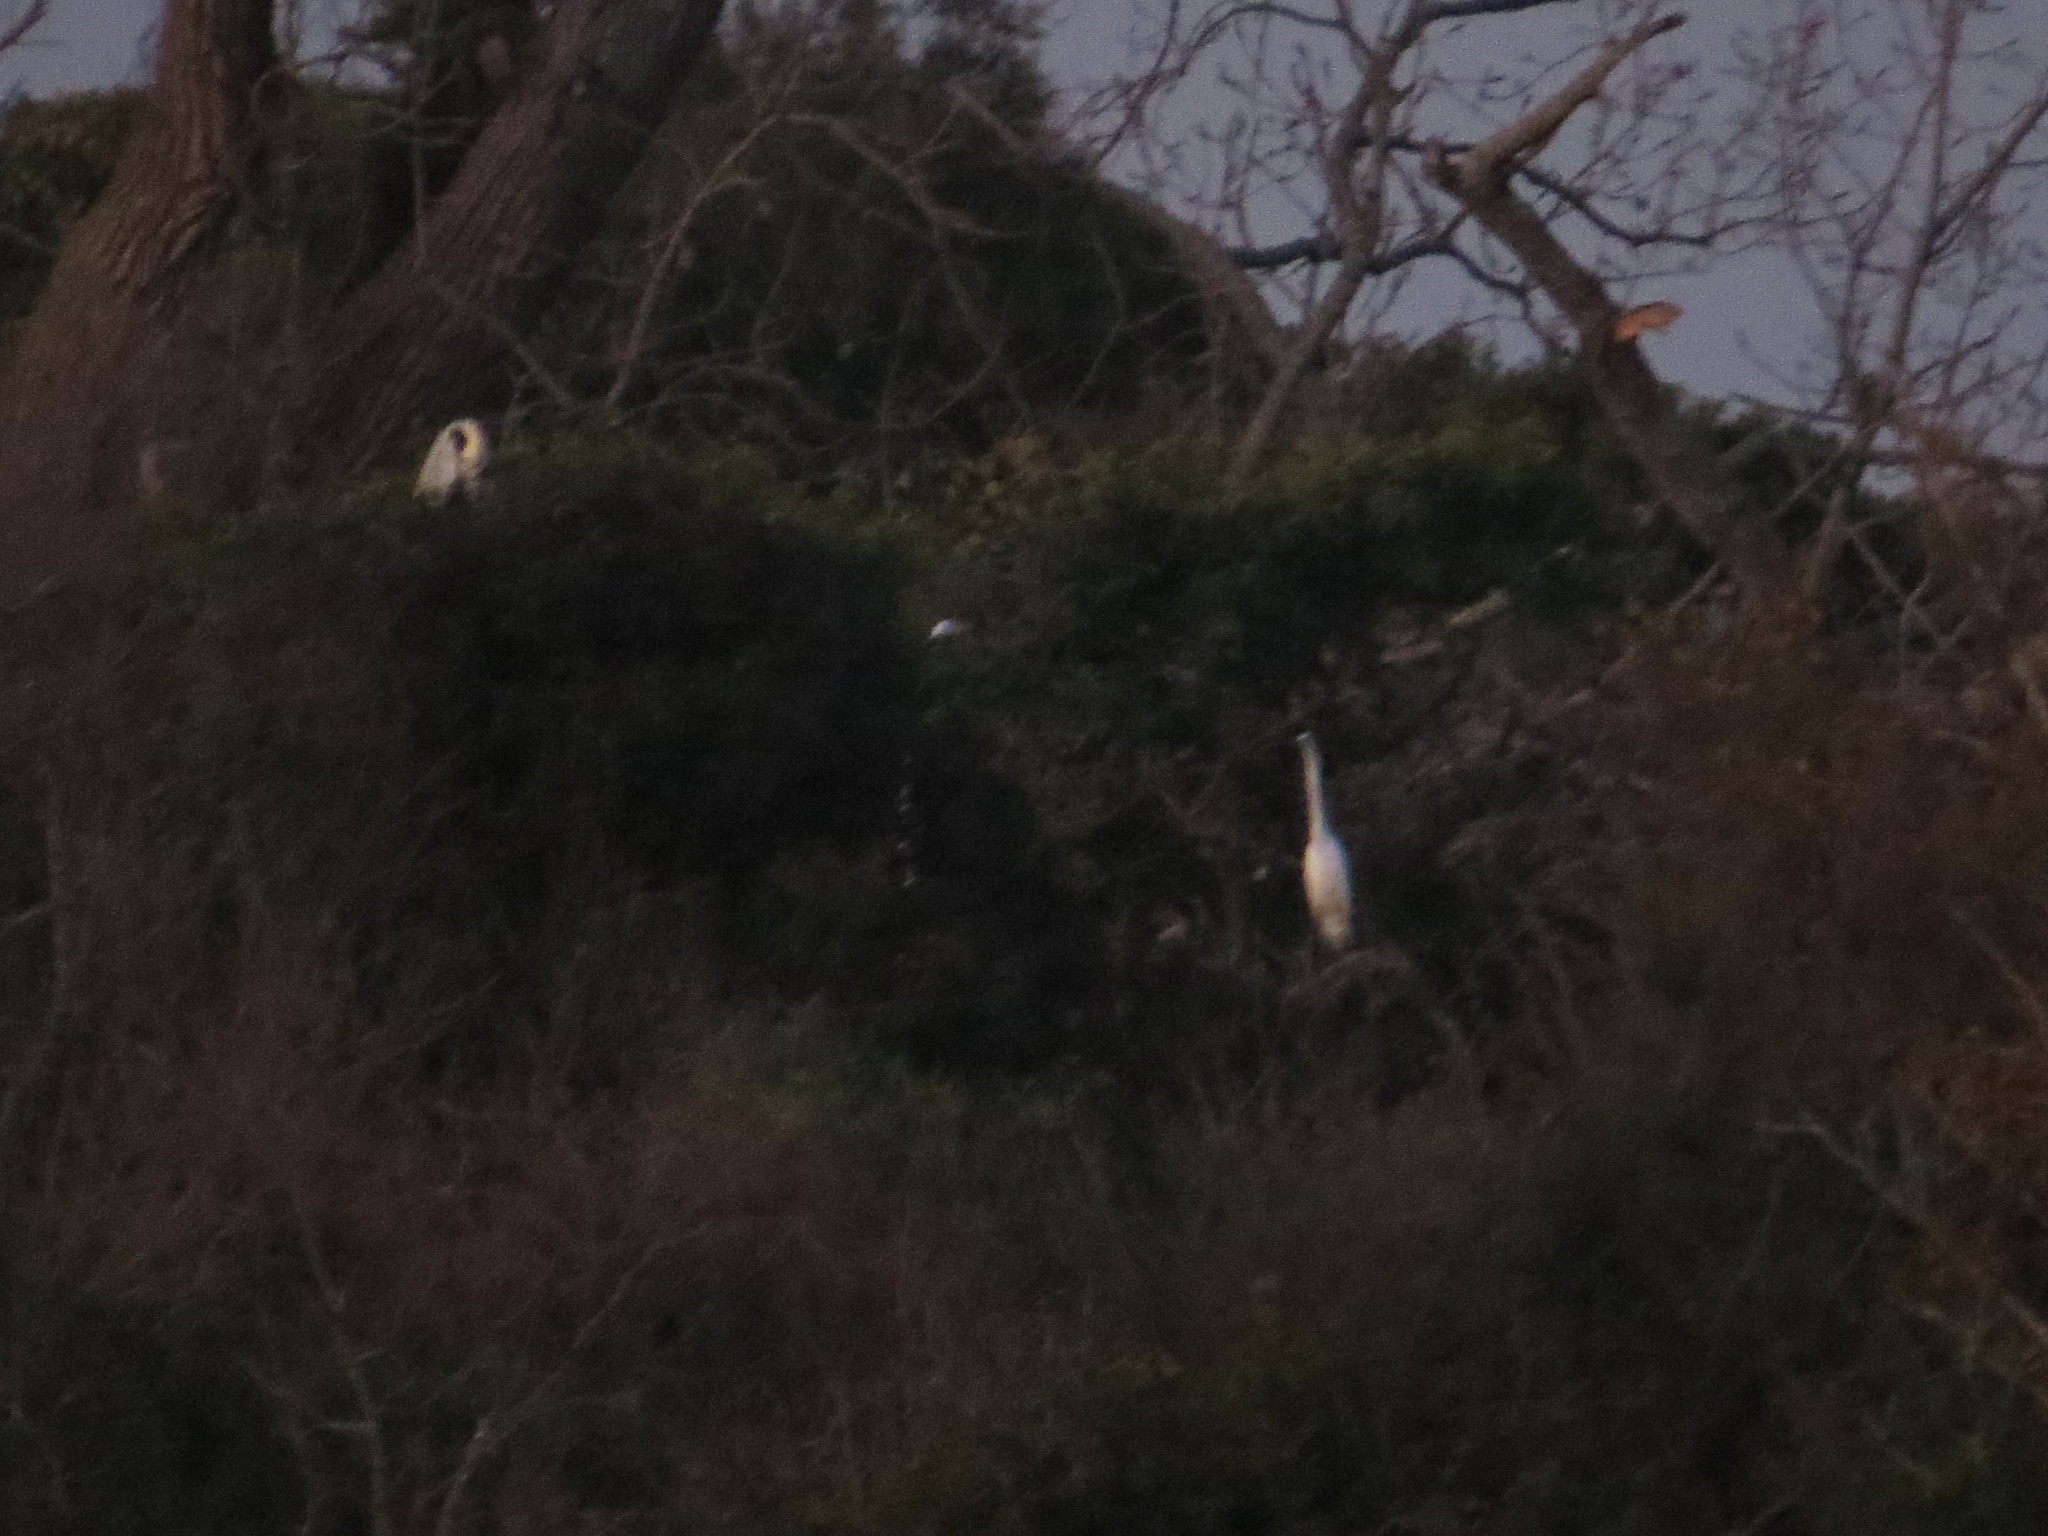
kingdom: Animalia
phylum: Chordata
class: Aves
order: Pelecaniformes
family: Ardeidae
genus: Ardea
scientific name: Ardea alba
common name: Great egret
